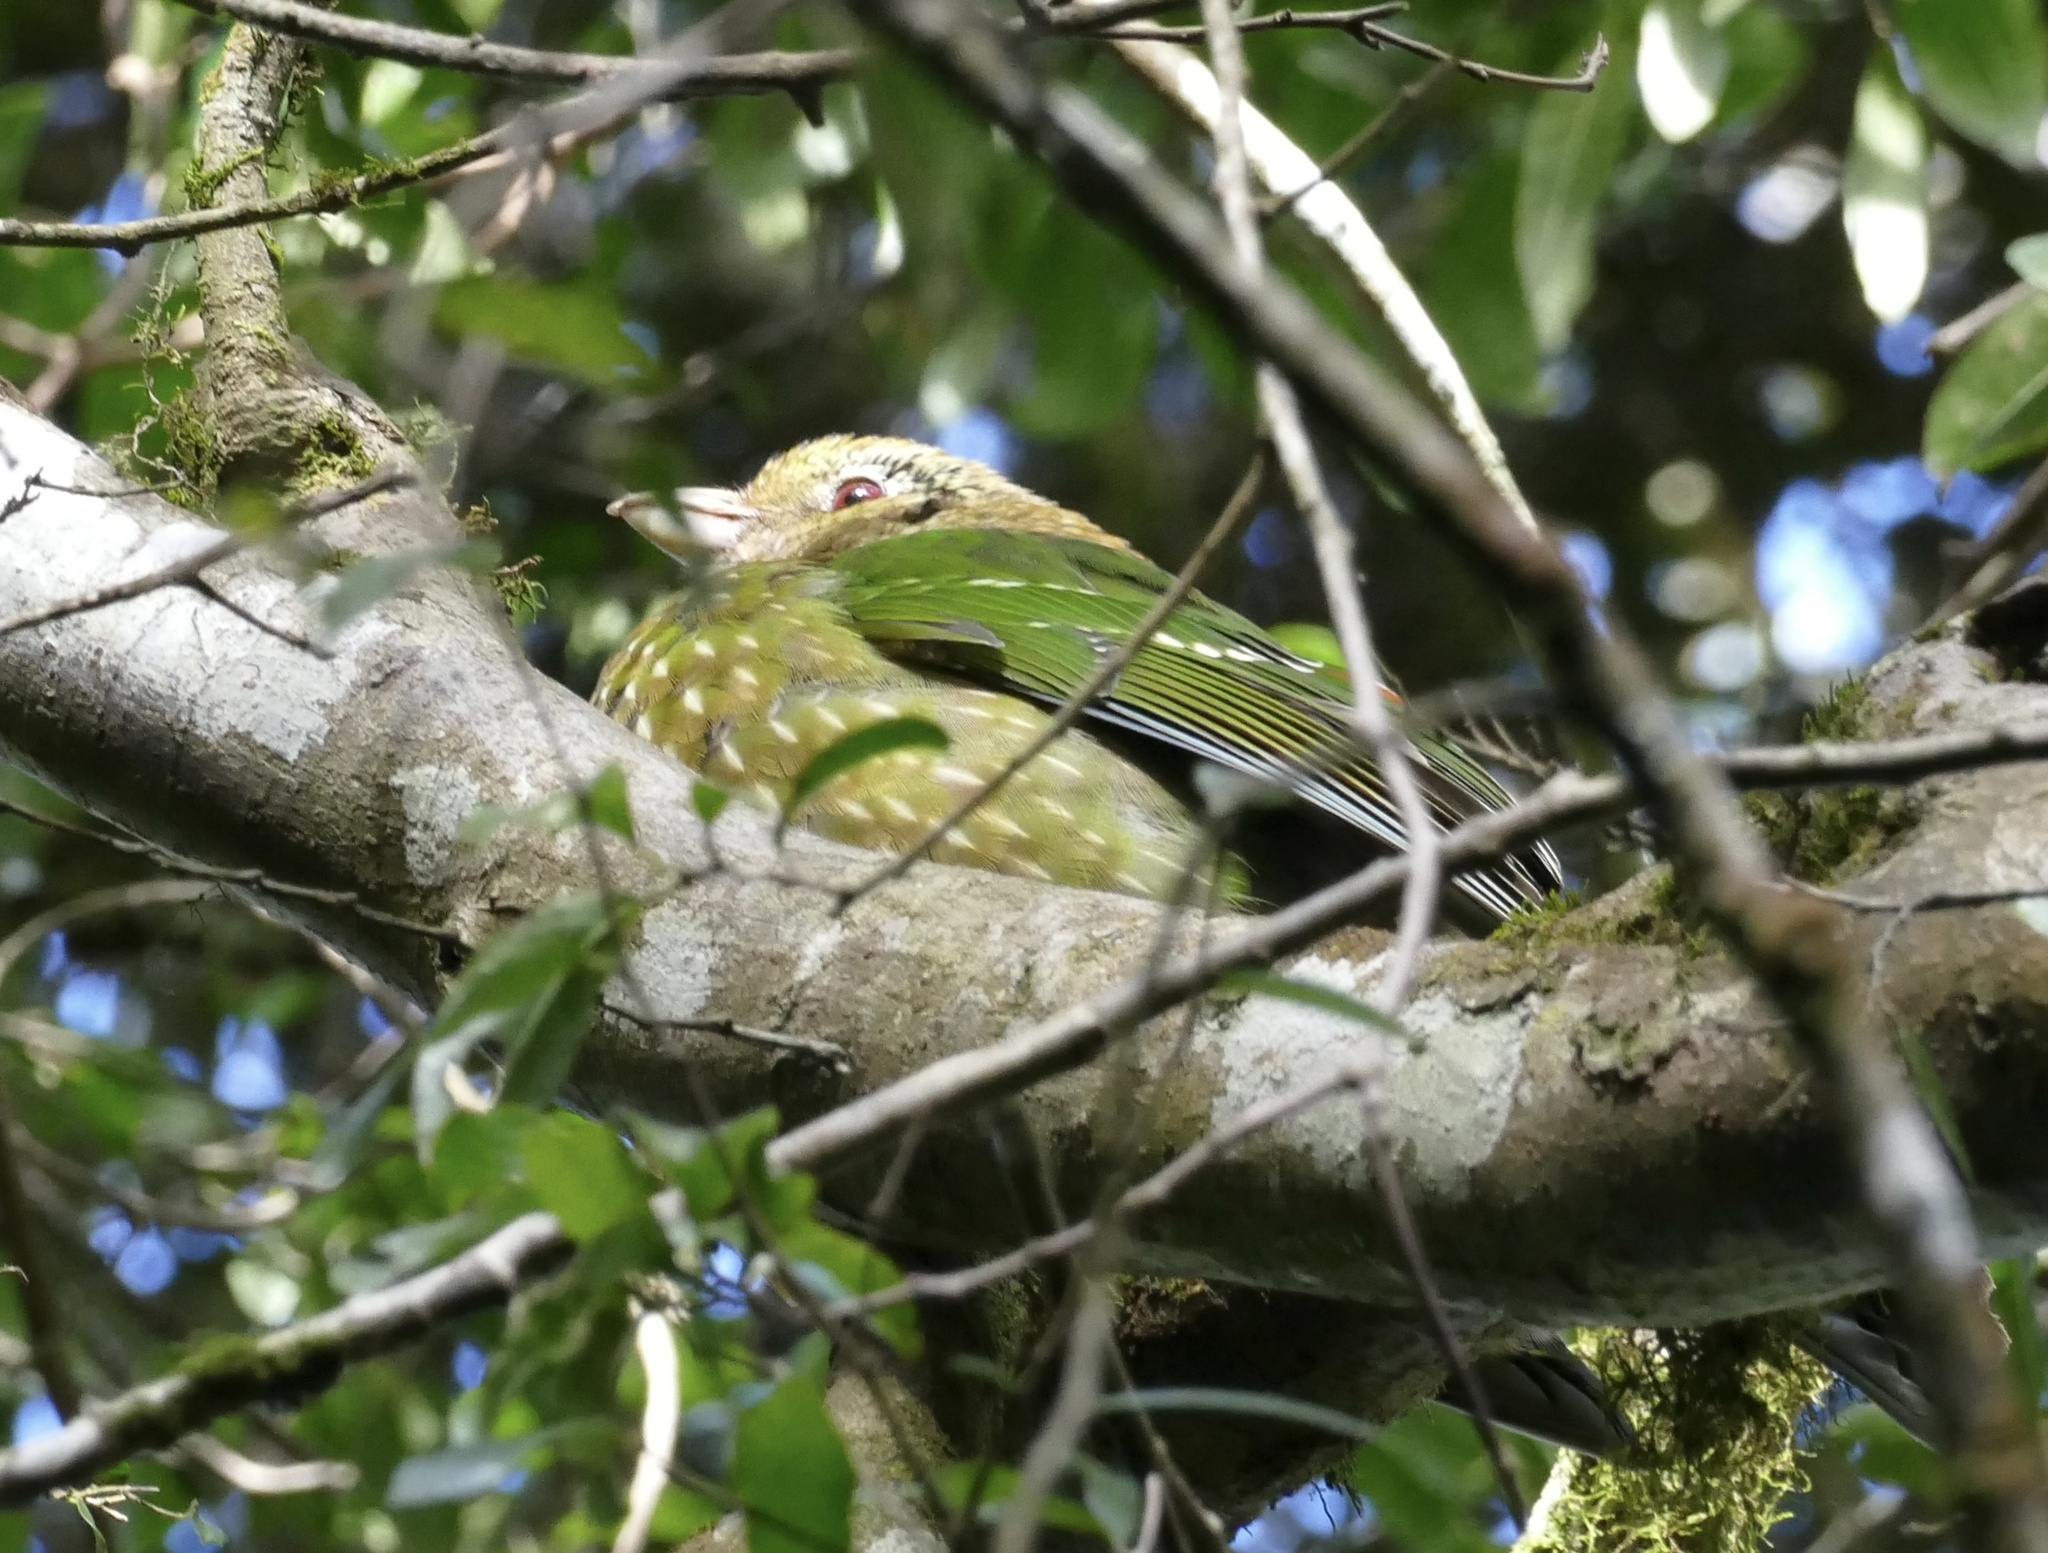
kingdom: Animalia
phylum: Chordata
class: Aves
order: Passeriformes
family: Ptilonorhynchidae
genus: Ailuroedus
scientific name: Ailuroedus crassirostris
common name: Green catbird
